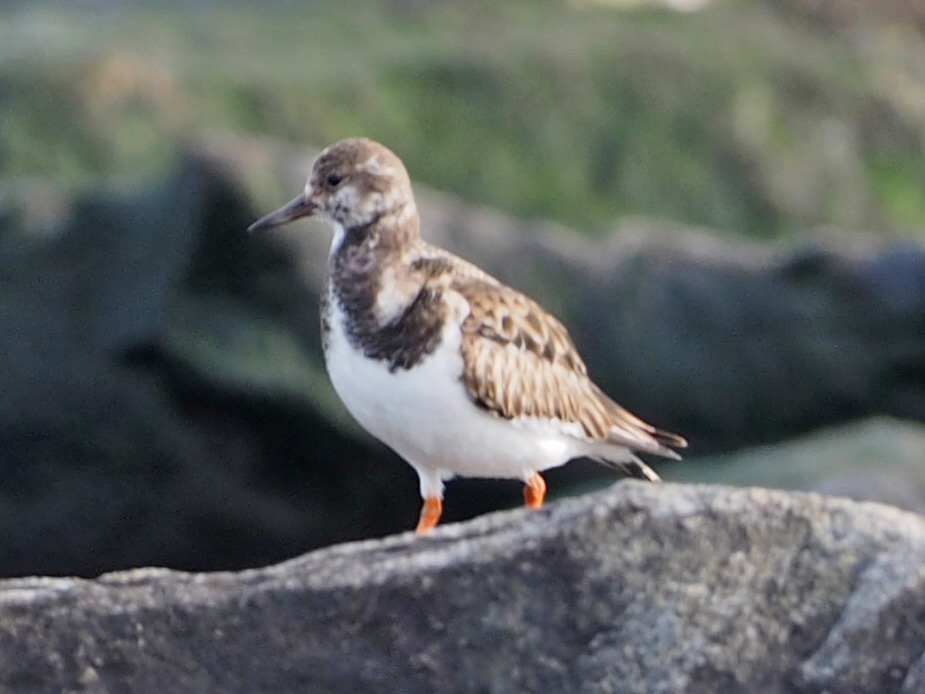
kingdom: Animalia
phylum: Chordata
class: Aves
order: Charadriiformes
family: Scolopacidae
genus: Arenaria
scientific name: Arenaria interpres
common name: Ruddy turnstone
